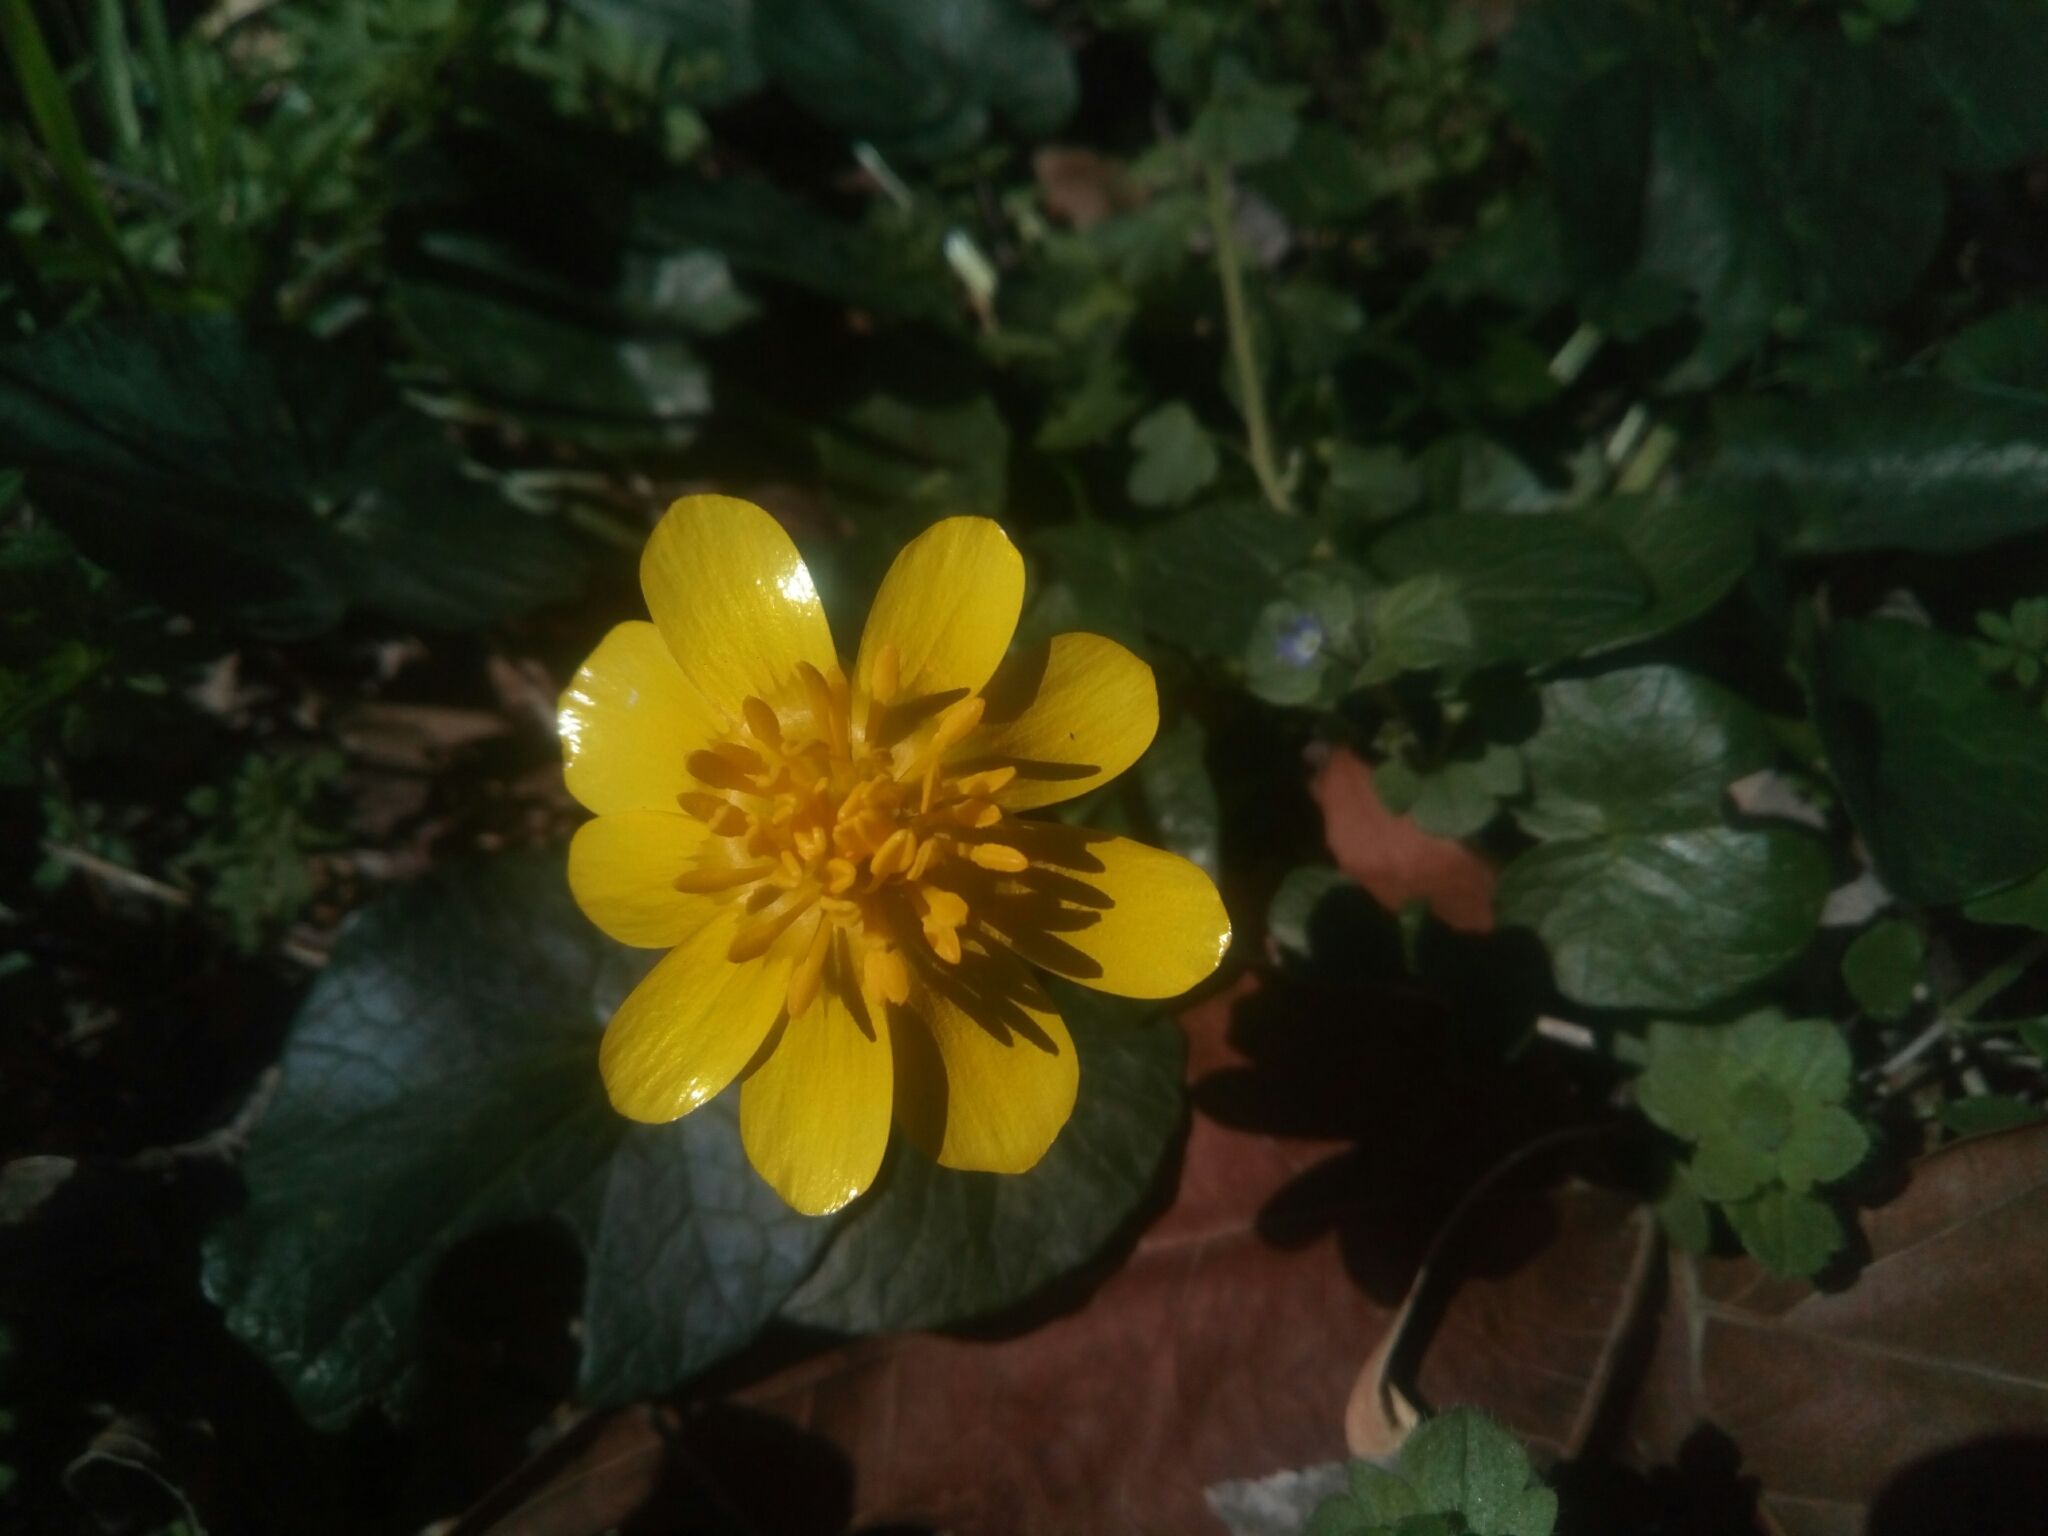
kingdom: Plantae
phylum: Tracheophyta
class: Magnoliopsida
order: Ranunculales
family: Ranunculaceae
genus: Ficaria
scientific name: Ficaria verna
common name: Lesser celandine
